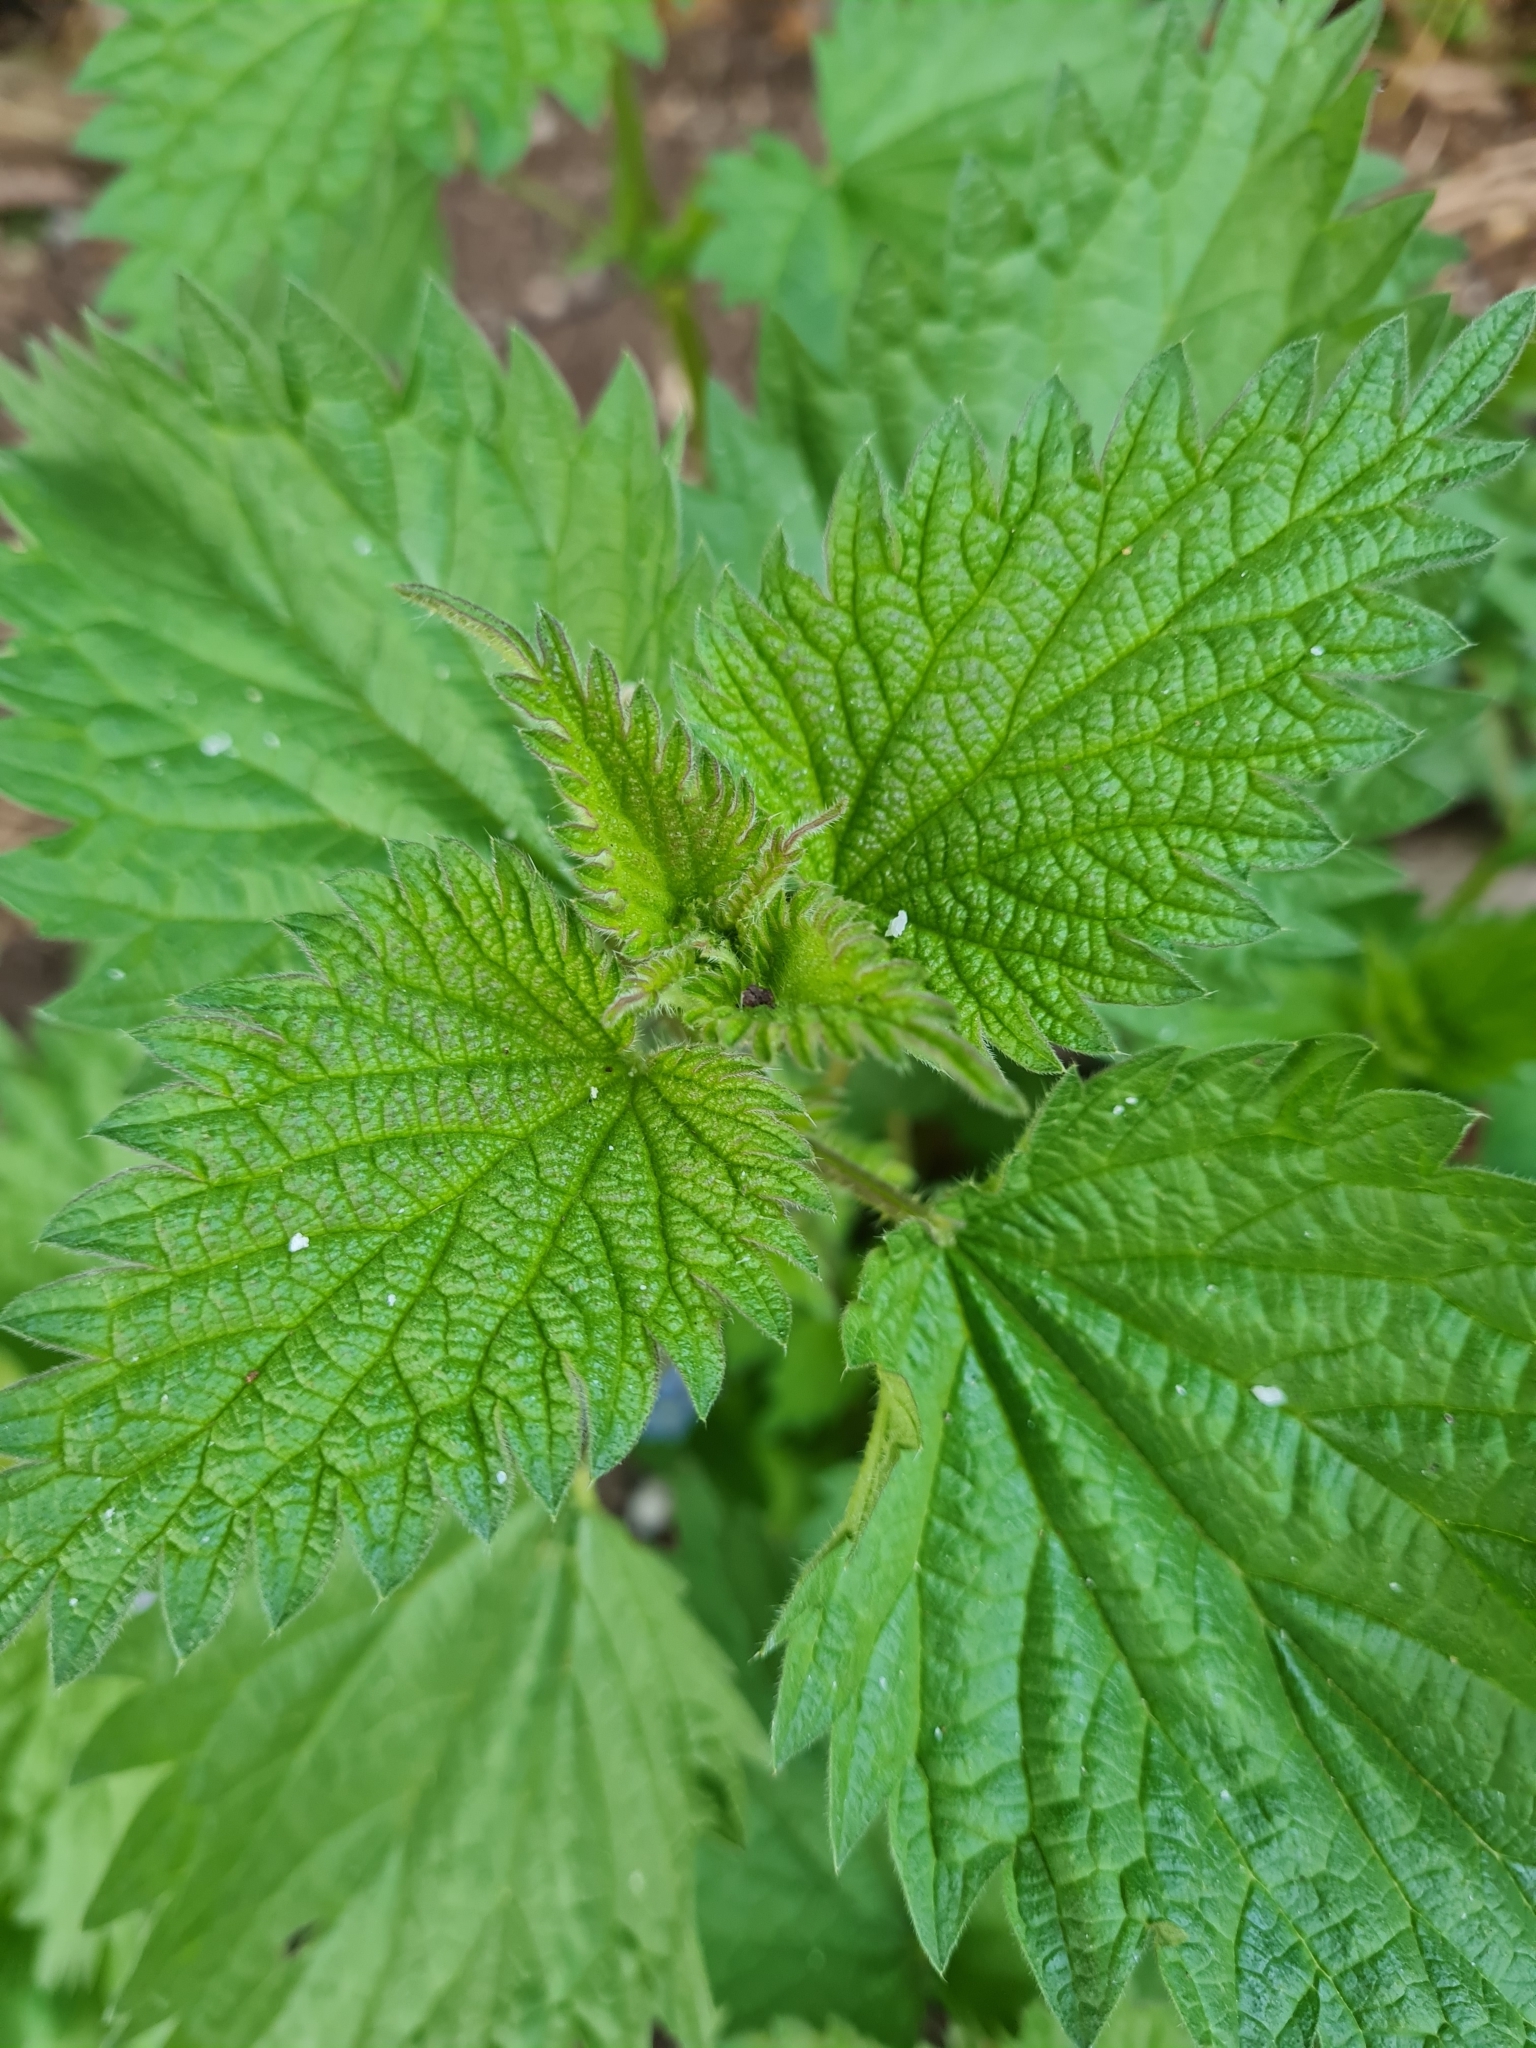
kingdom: Plantae
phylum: Tracheophyta
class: Magnoliopsida
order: Rosales
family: Urticaceae
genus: Urtica
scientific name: Urtica dioica
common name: Common nettle
